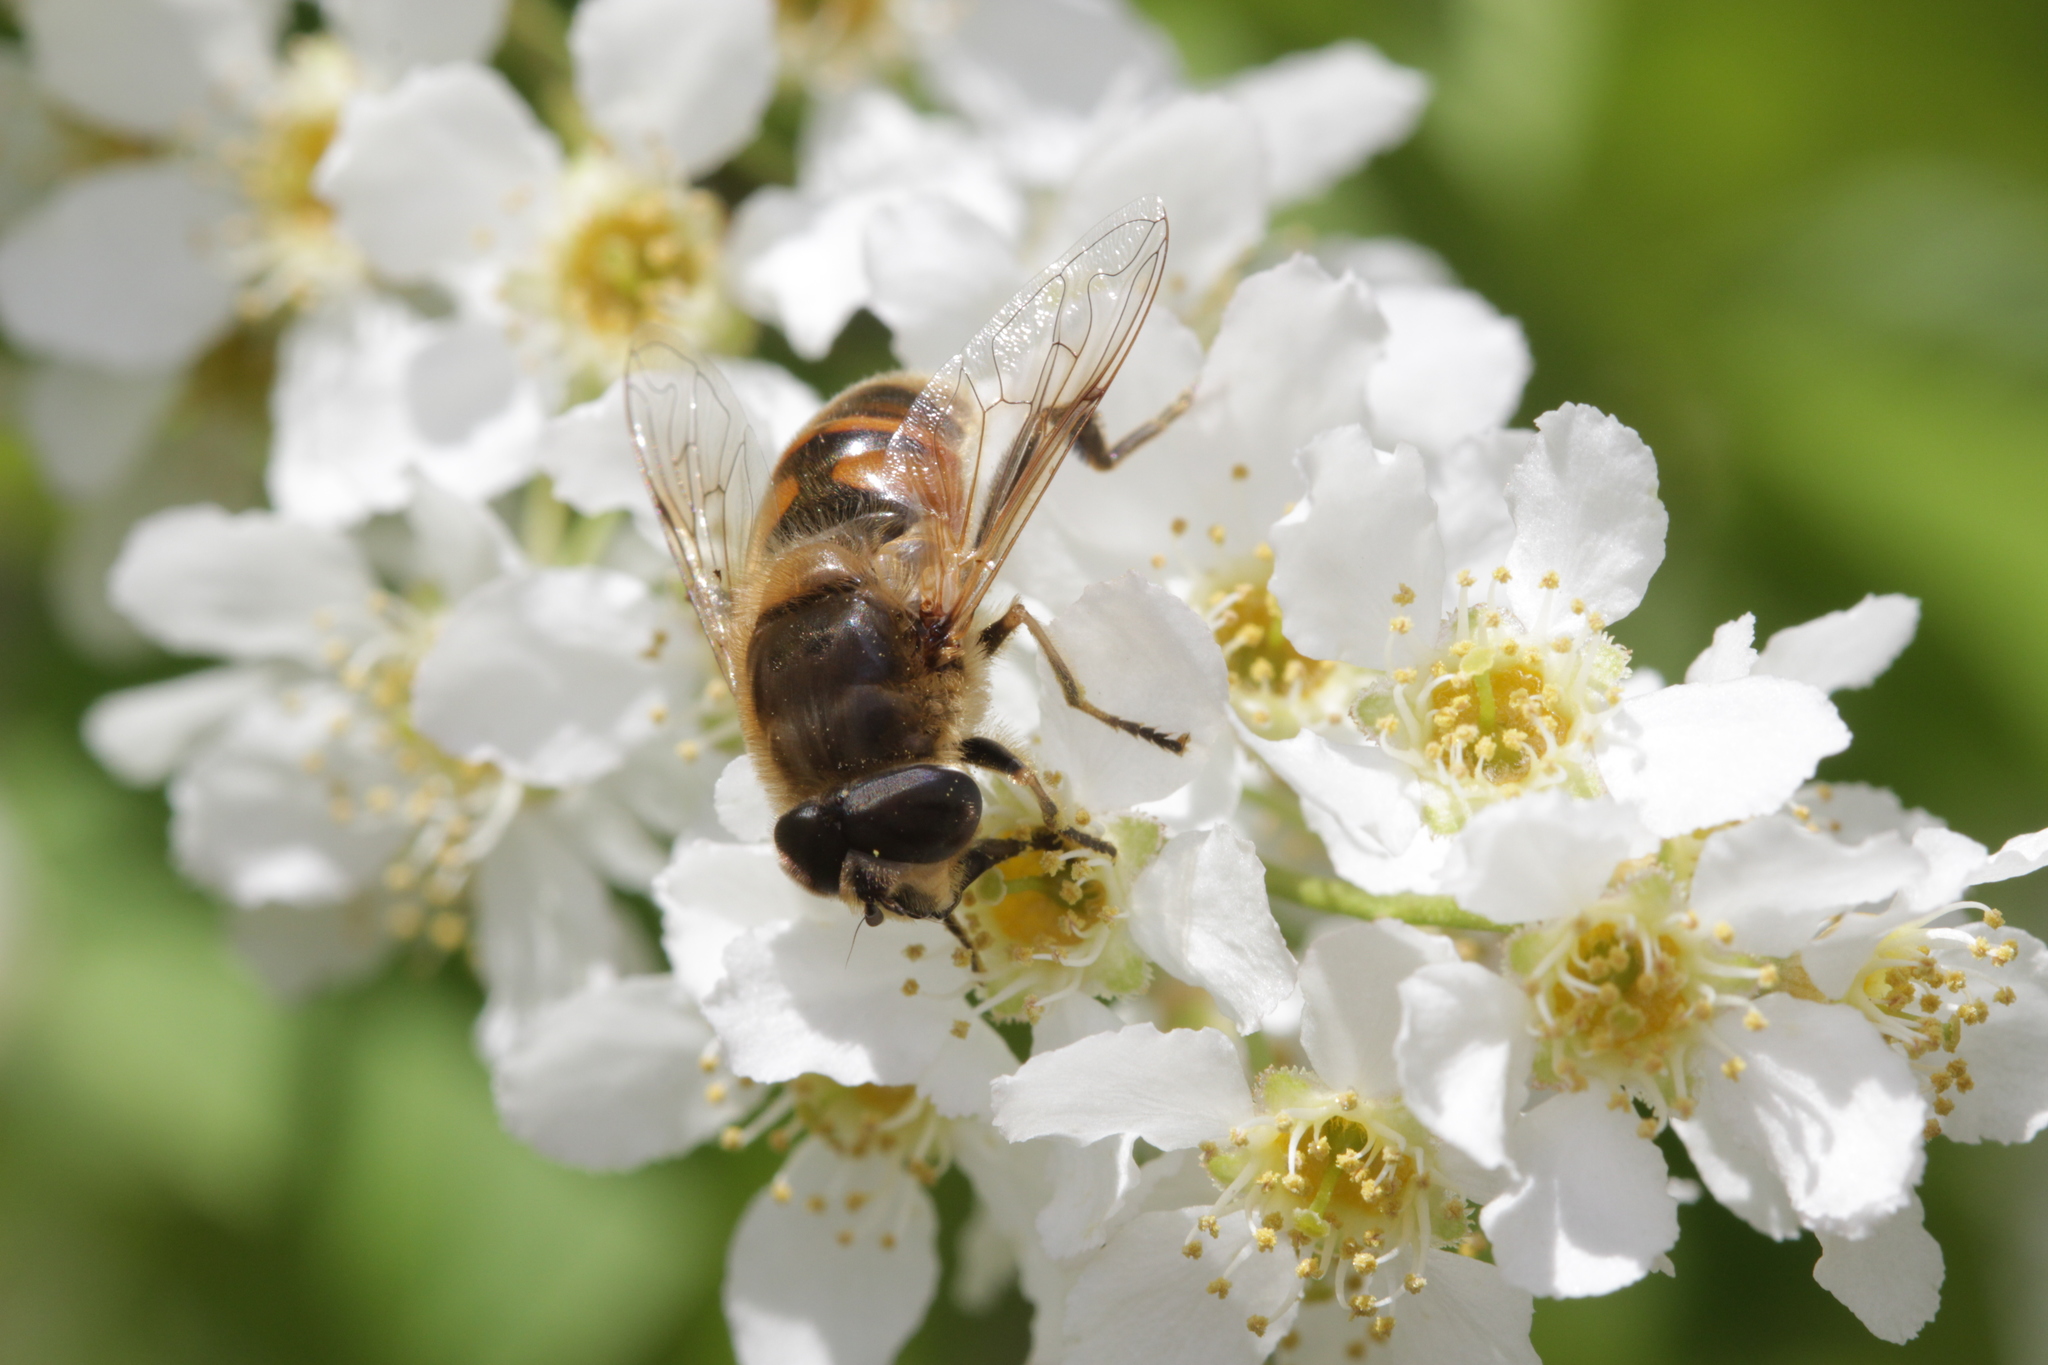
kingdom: Animalia
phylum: Arthropoda
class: Insecta
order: Diptera
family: Syrphidae
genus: Eristalis
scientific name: Eristalis tenax
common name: Drone fly
